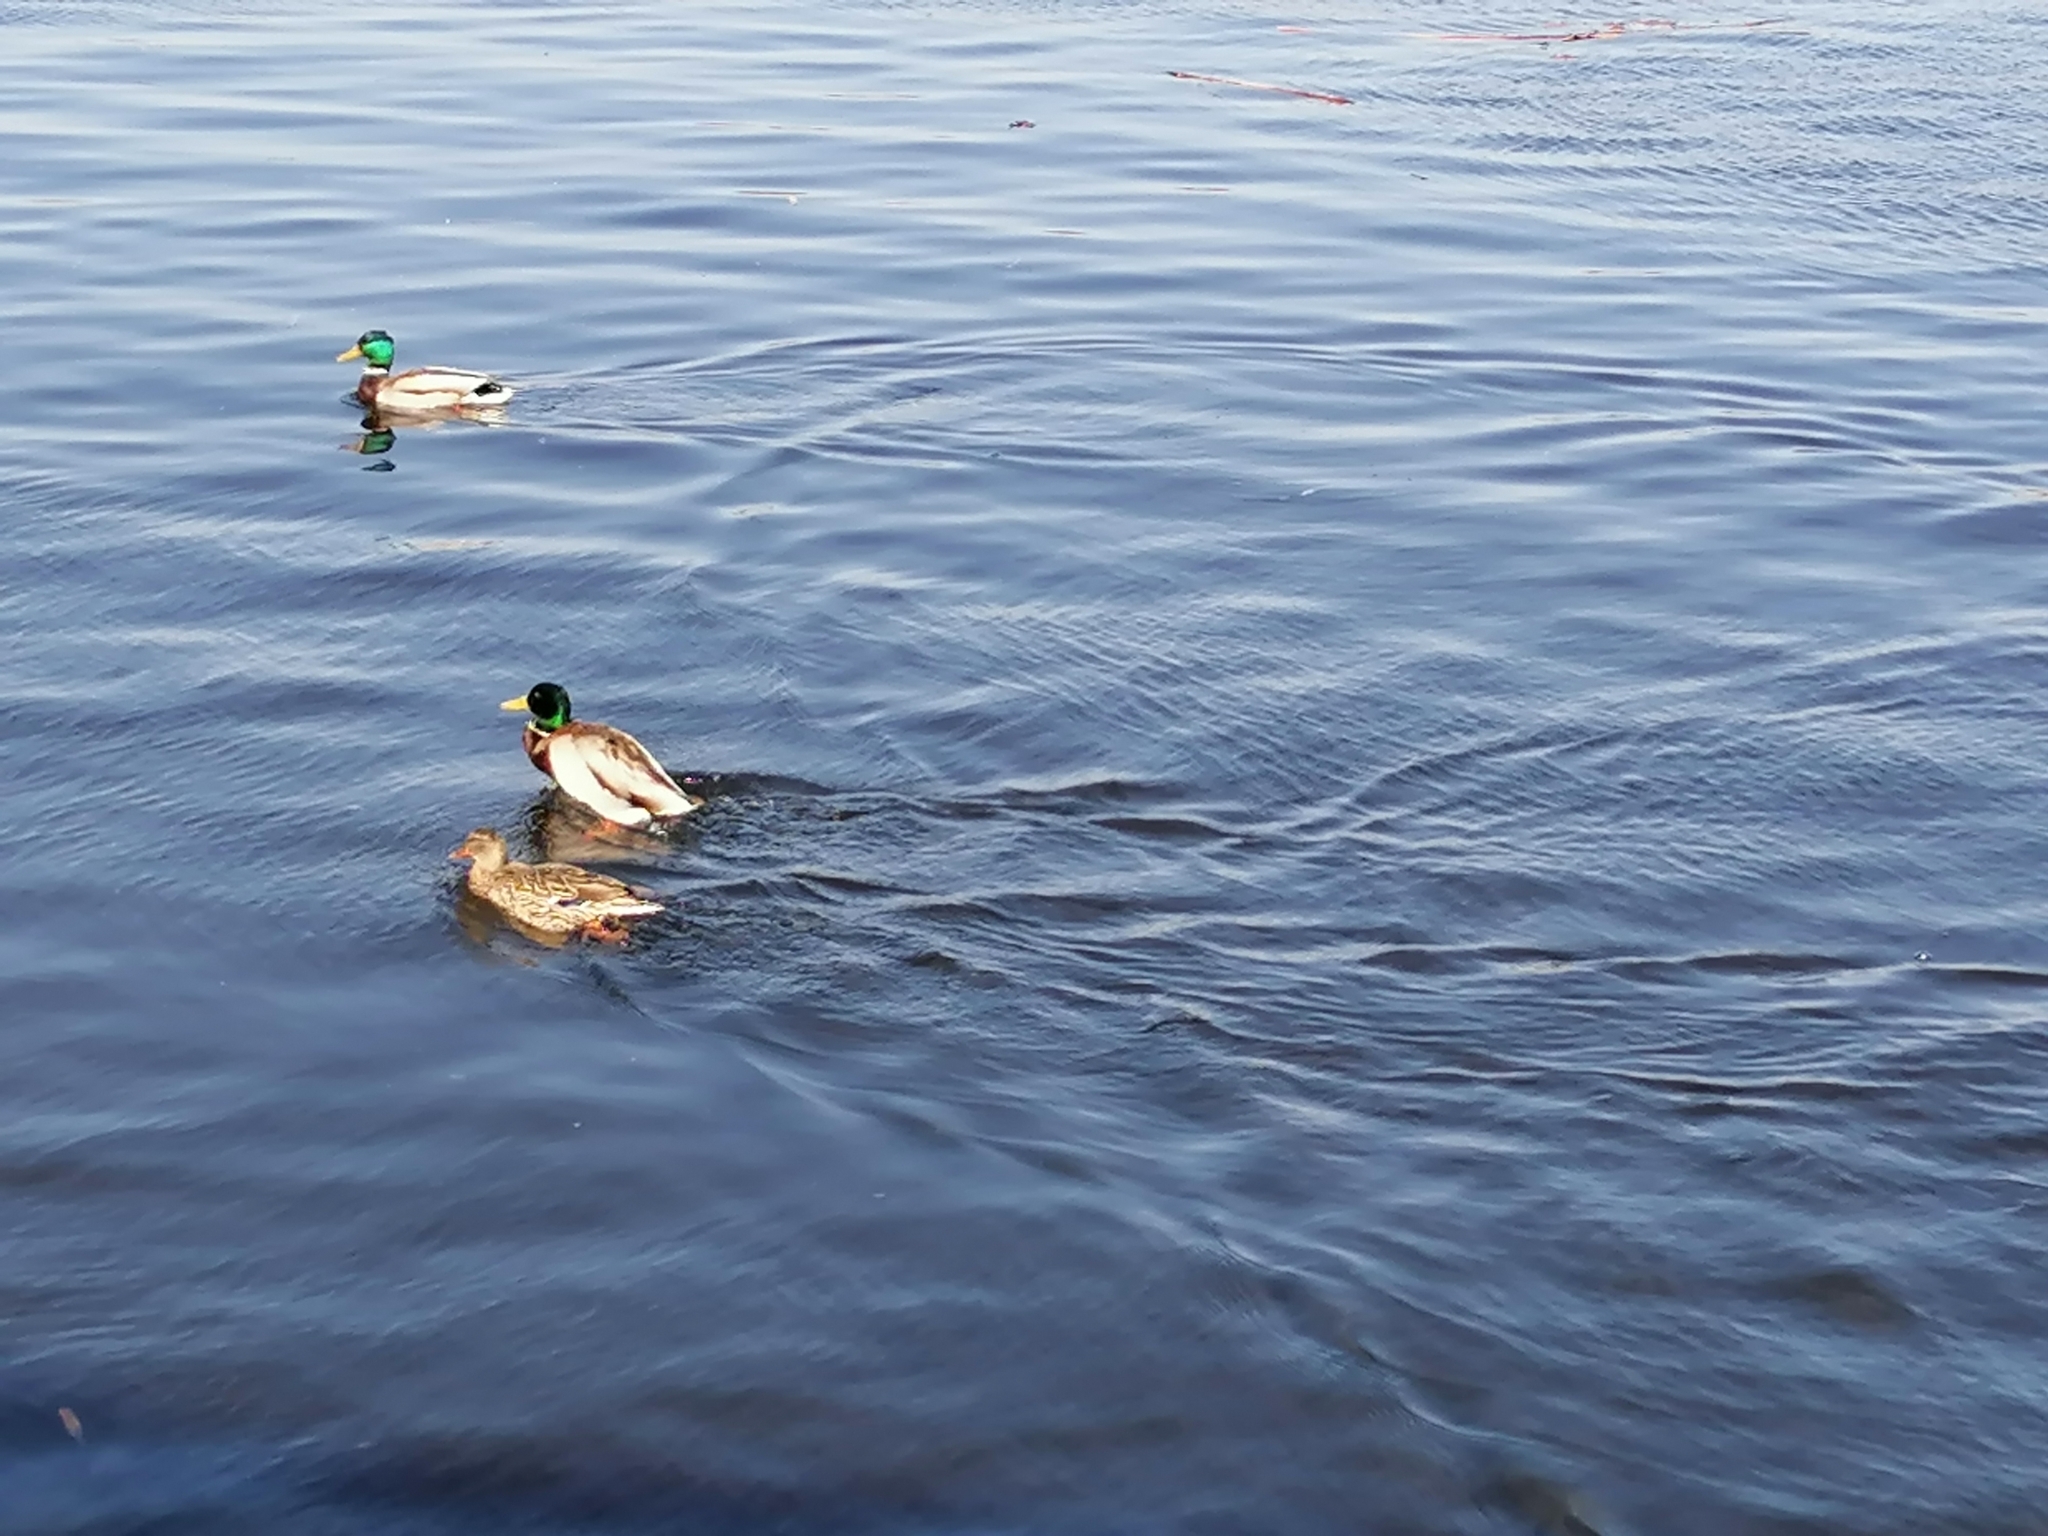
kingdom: Animalia
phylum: Chordata
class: Aves
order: Anseriformes
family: Anatidae
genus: Anas
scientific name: Anas platyrhynchos
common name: Mallard
